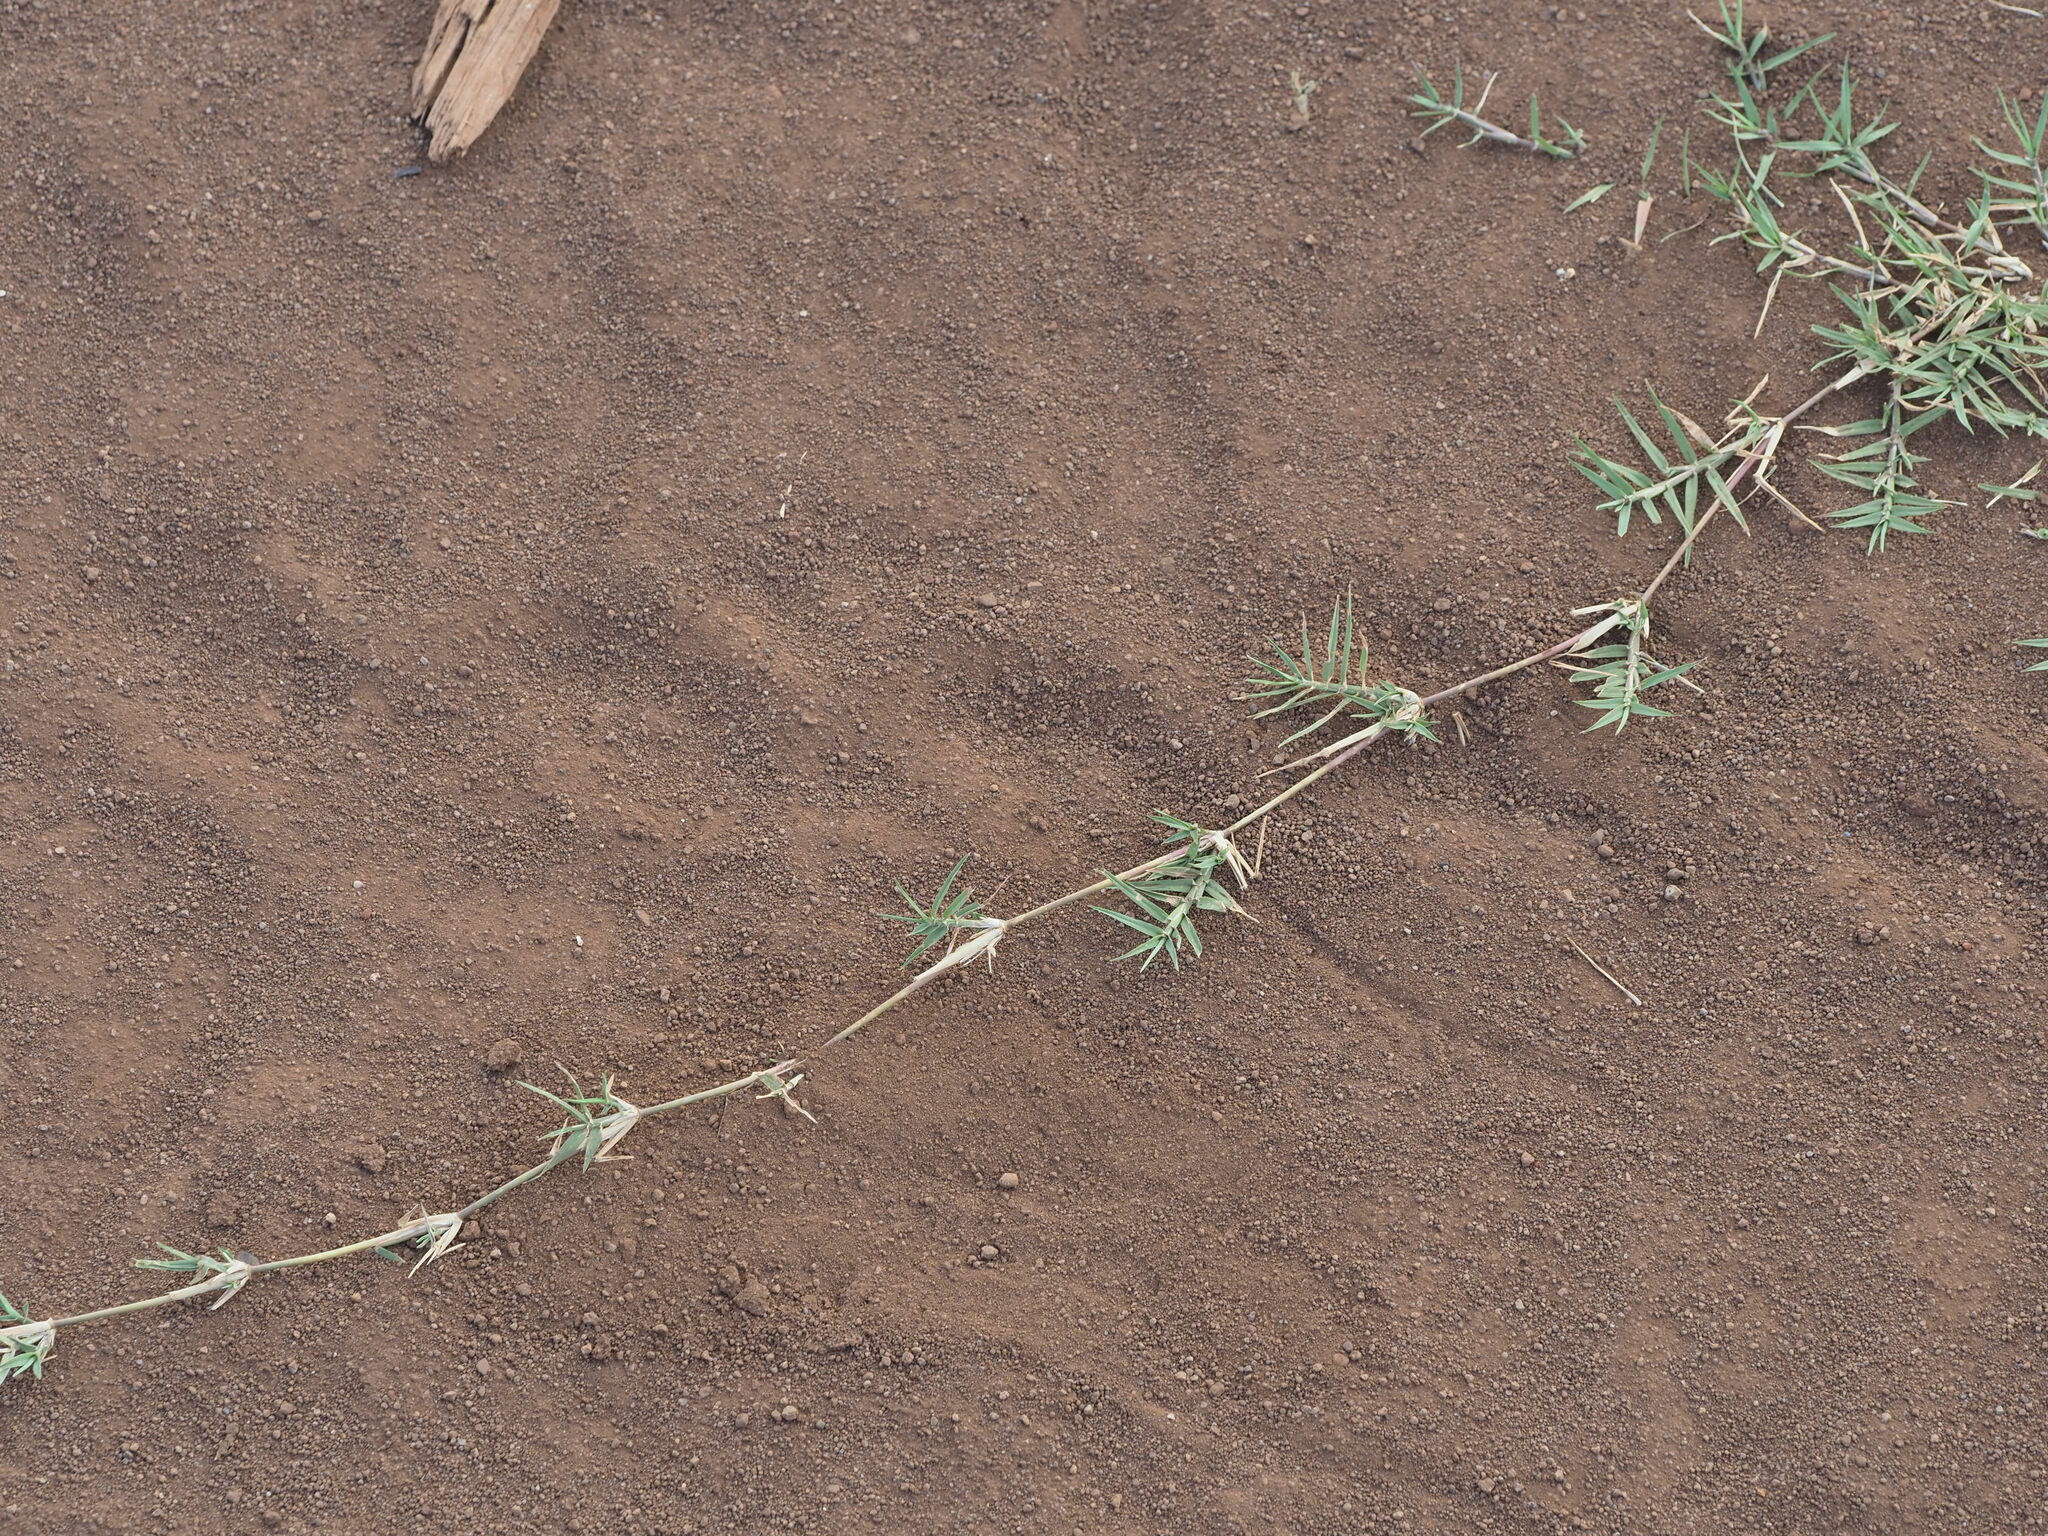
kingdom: Plantae
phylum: Tracheophyta
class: Liliopsida
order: Poales
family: Poaceae
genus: Cynodon
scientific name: Cynodon dactylon
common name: Bermuda grass
